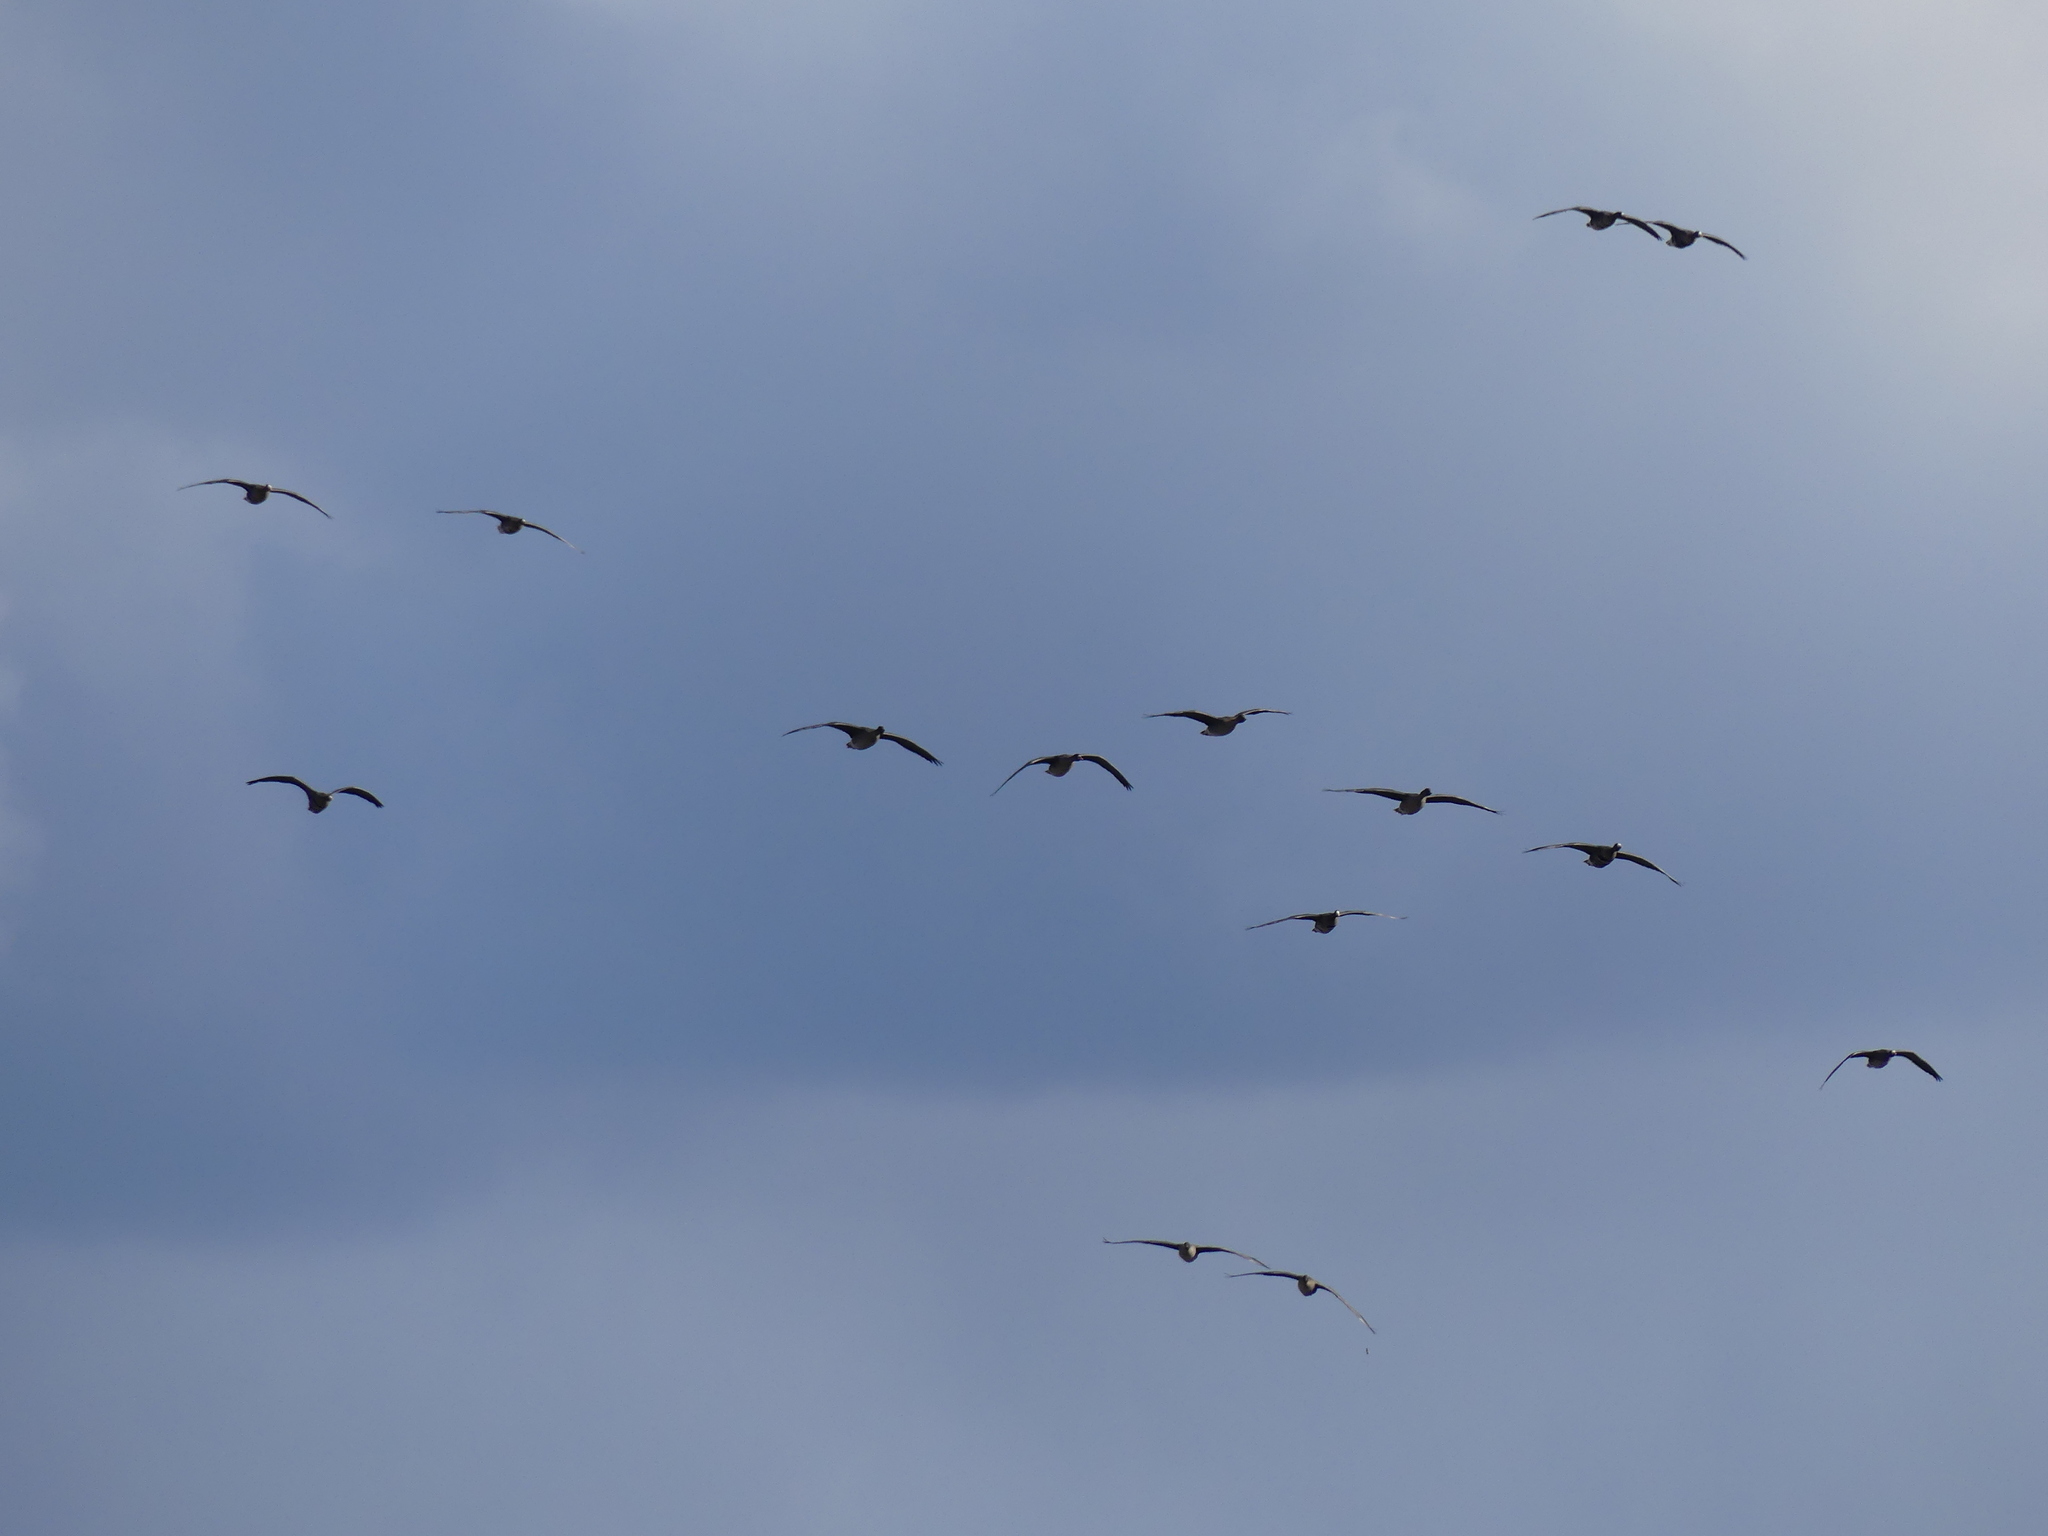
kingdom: Animalia
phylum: Chordata
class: Aves
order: Anseriformes
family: Anatidae
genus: Anser
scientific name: Anser
